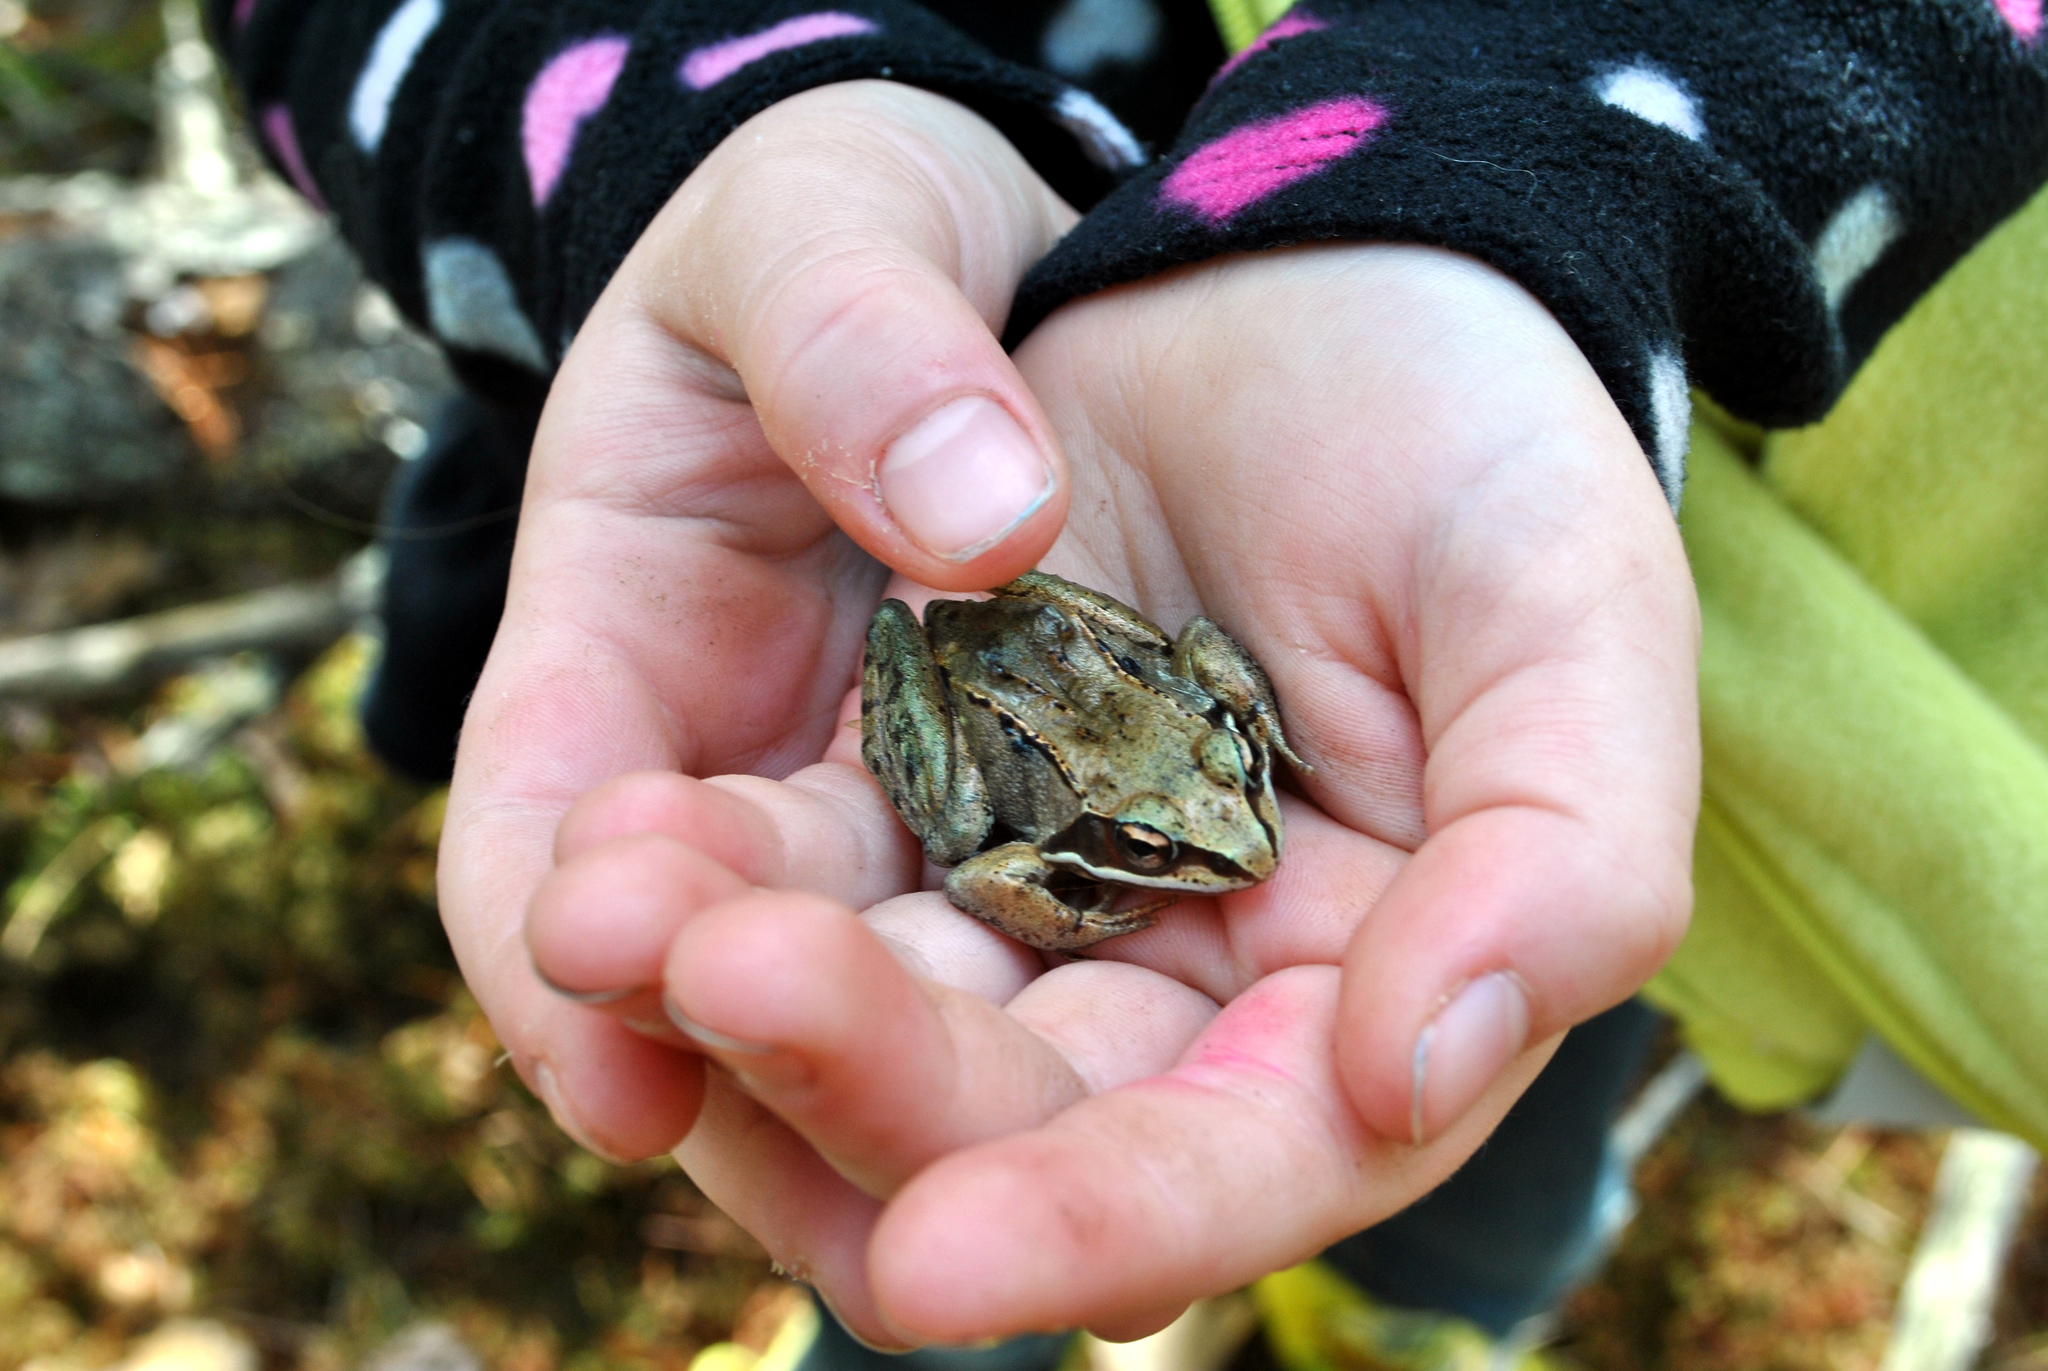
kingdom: Animalia
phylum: Chordata
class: Amphibia
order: Anura
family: Ranidae
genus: Lithobates
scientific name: Lithobates sylvaticus
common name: Wood frog
